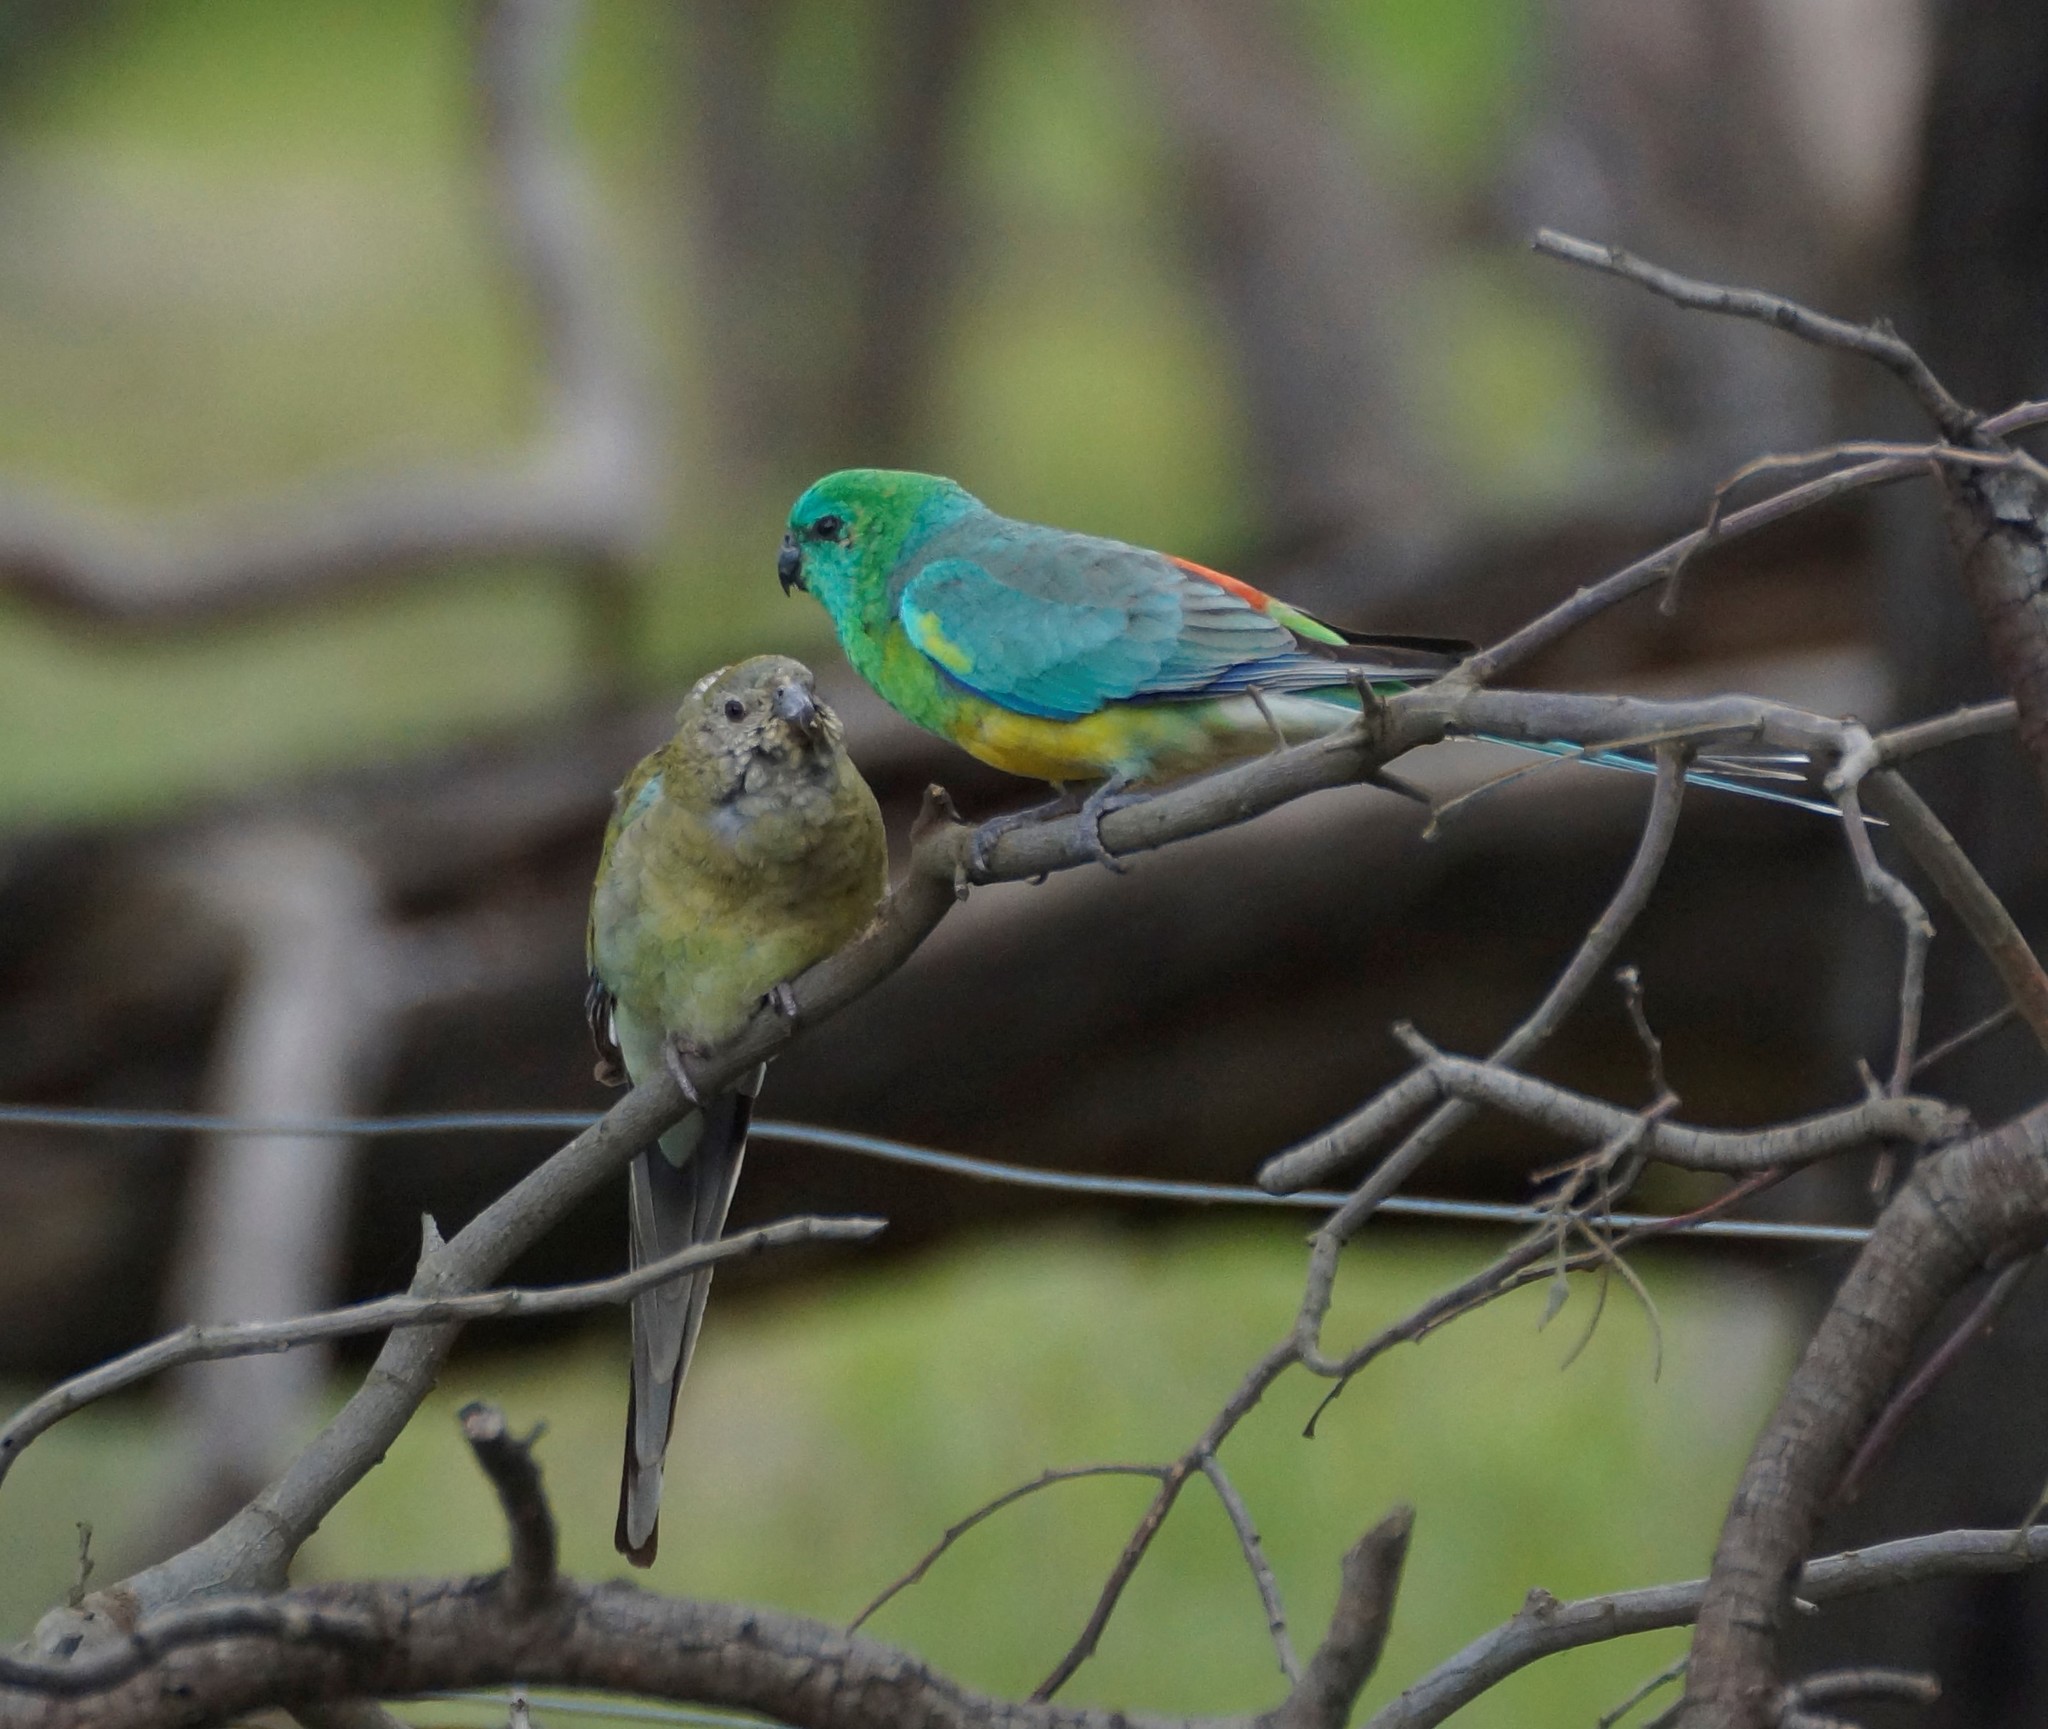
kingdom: Animalia
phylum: Chordata
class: Aves
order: Psittaciformes
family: Psittacidae
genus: Psephotus
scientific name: Psephotus haematonotus
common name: Red-rumped parrot
